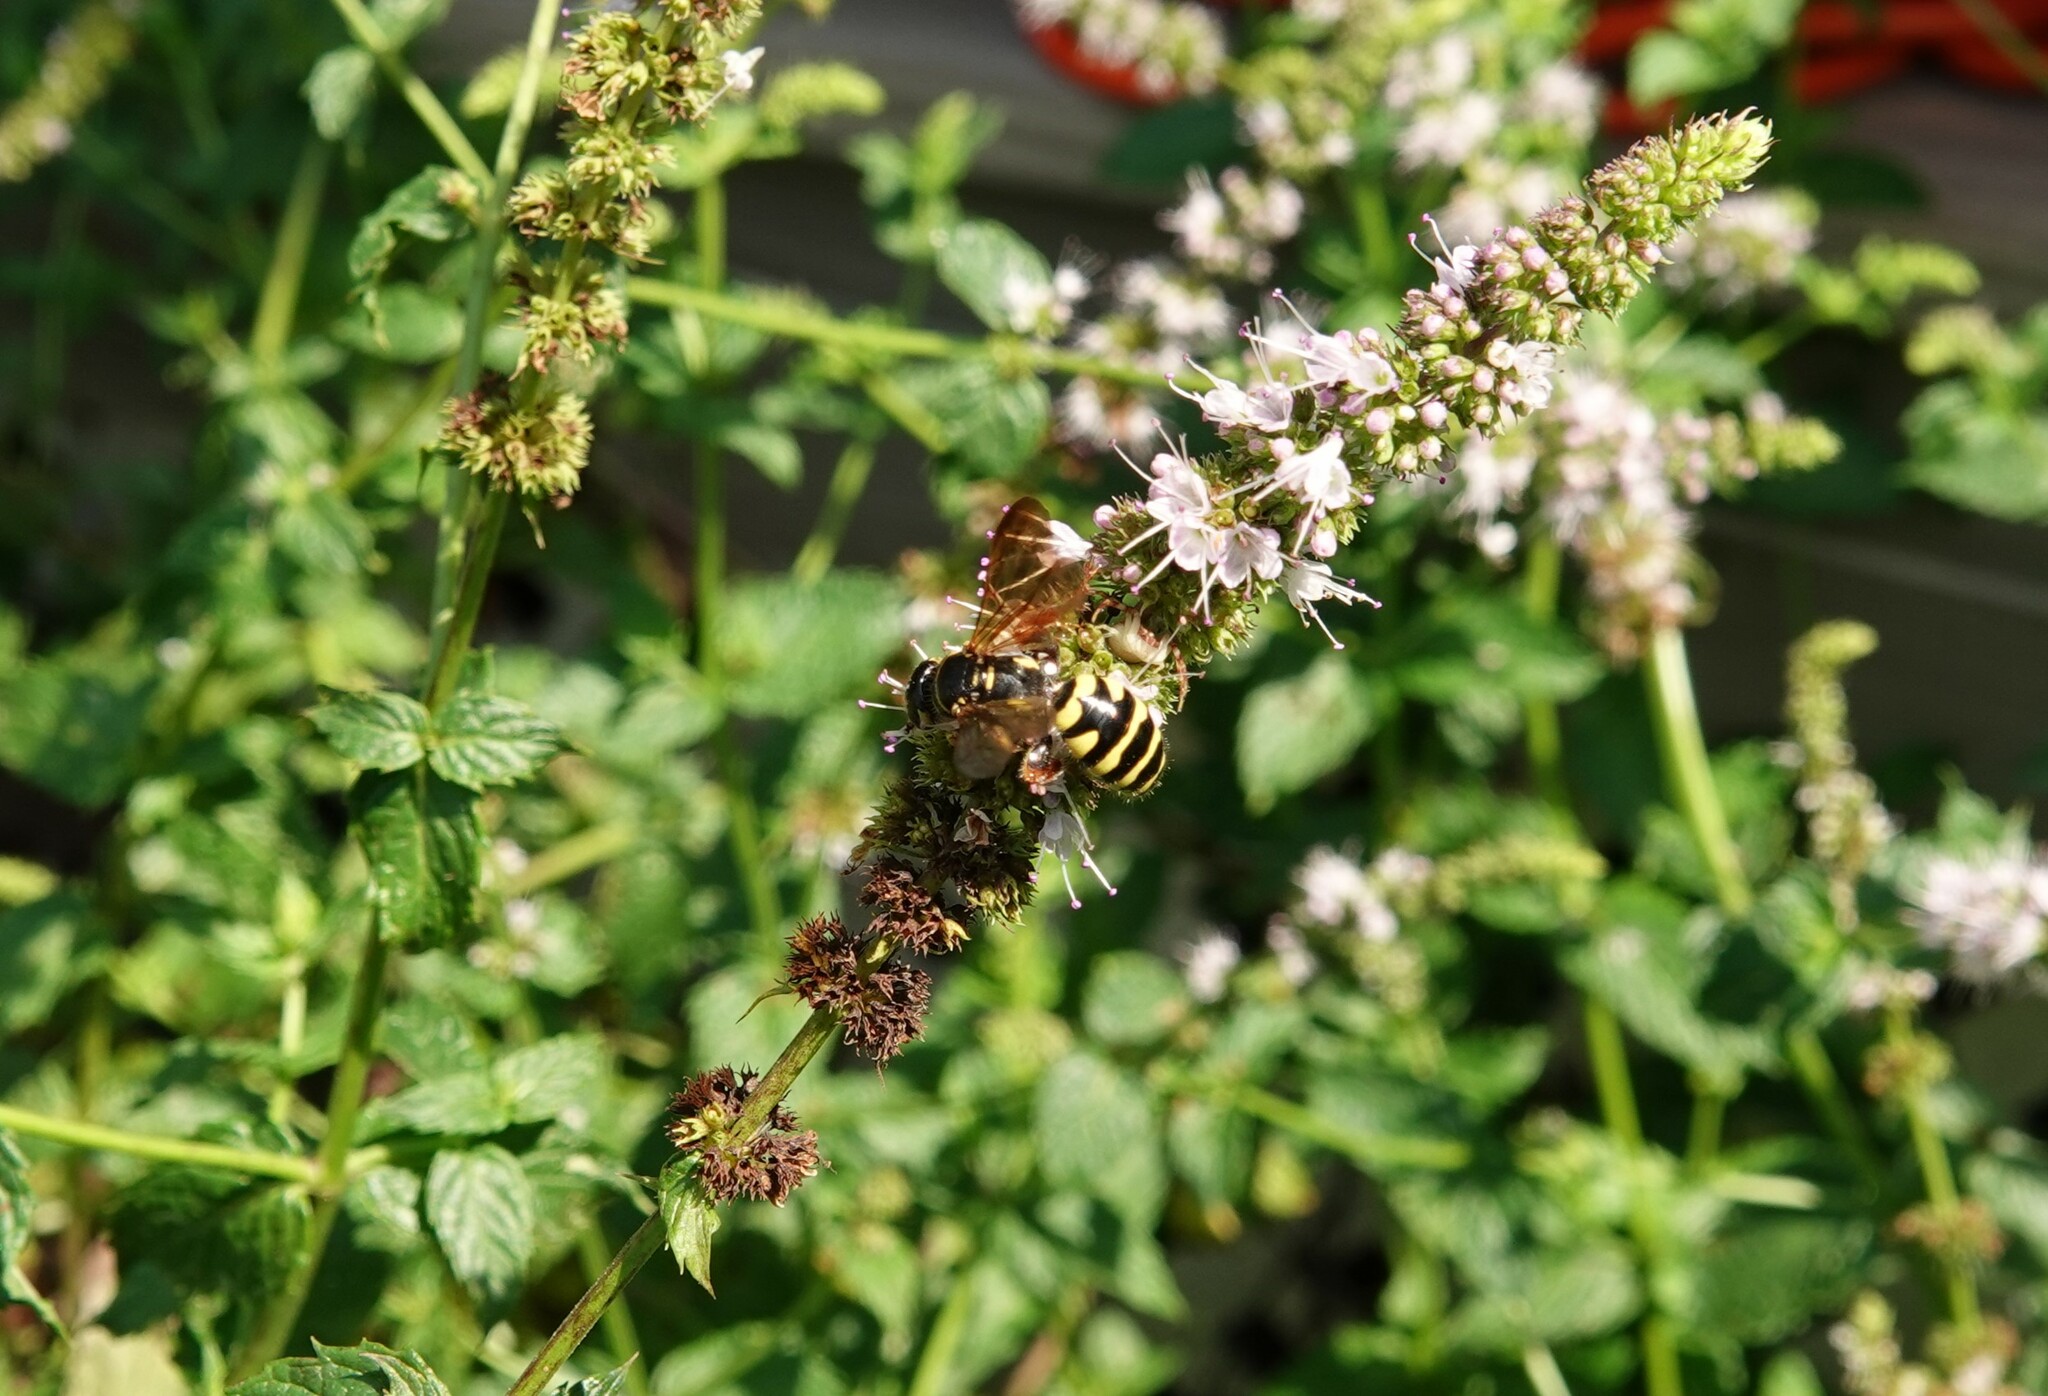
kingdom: Animalia
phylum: Arthropoda
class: Insecta
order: Hymenoptera
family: Tiphiidae
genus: Myzinum
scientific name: Myzinum quinquecinctum
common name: Five-banded thynnid wasp
